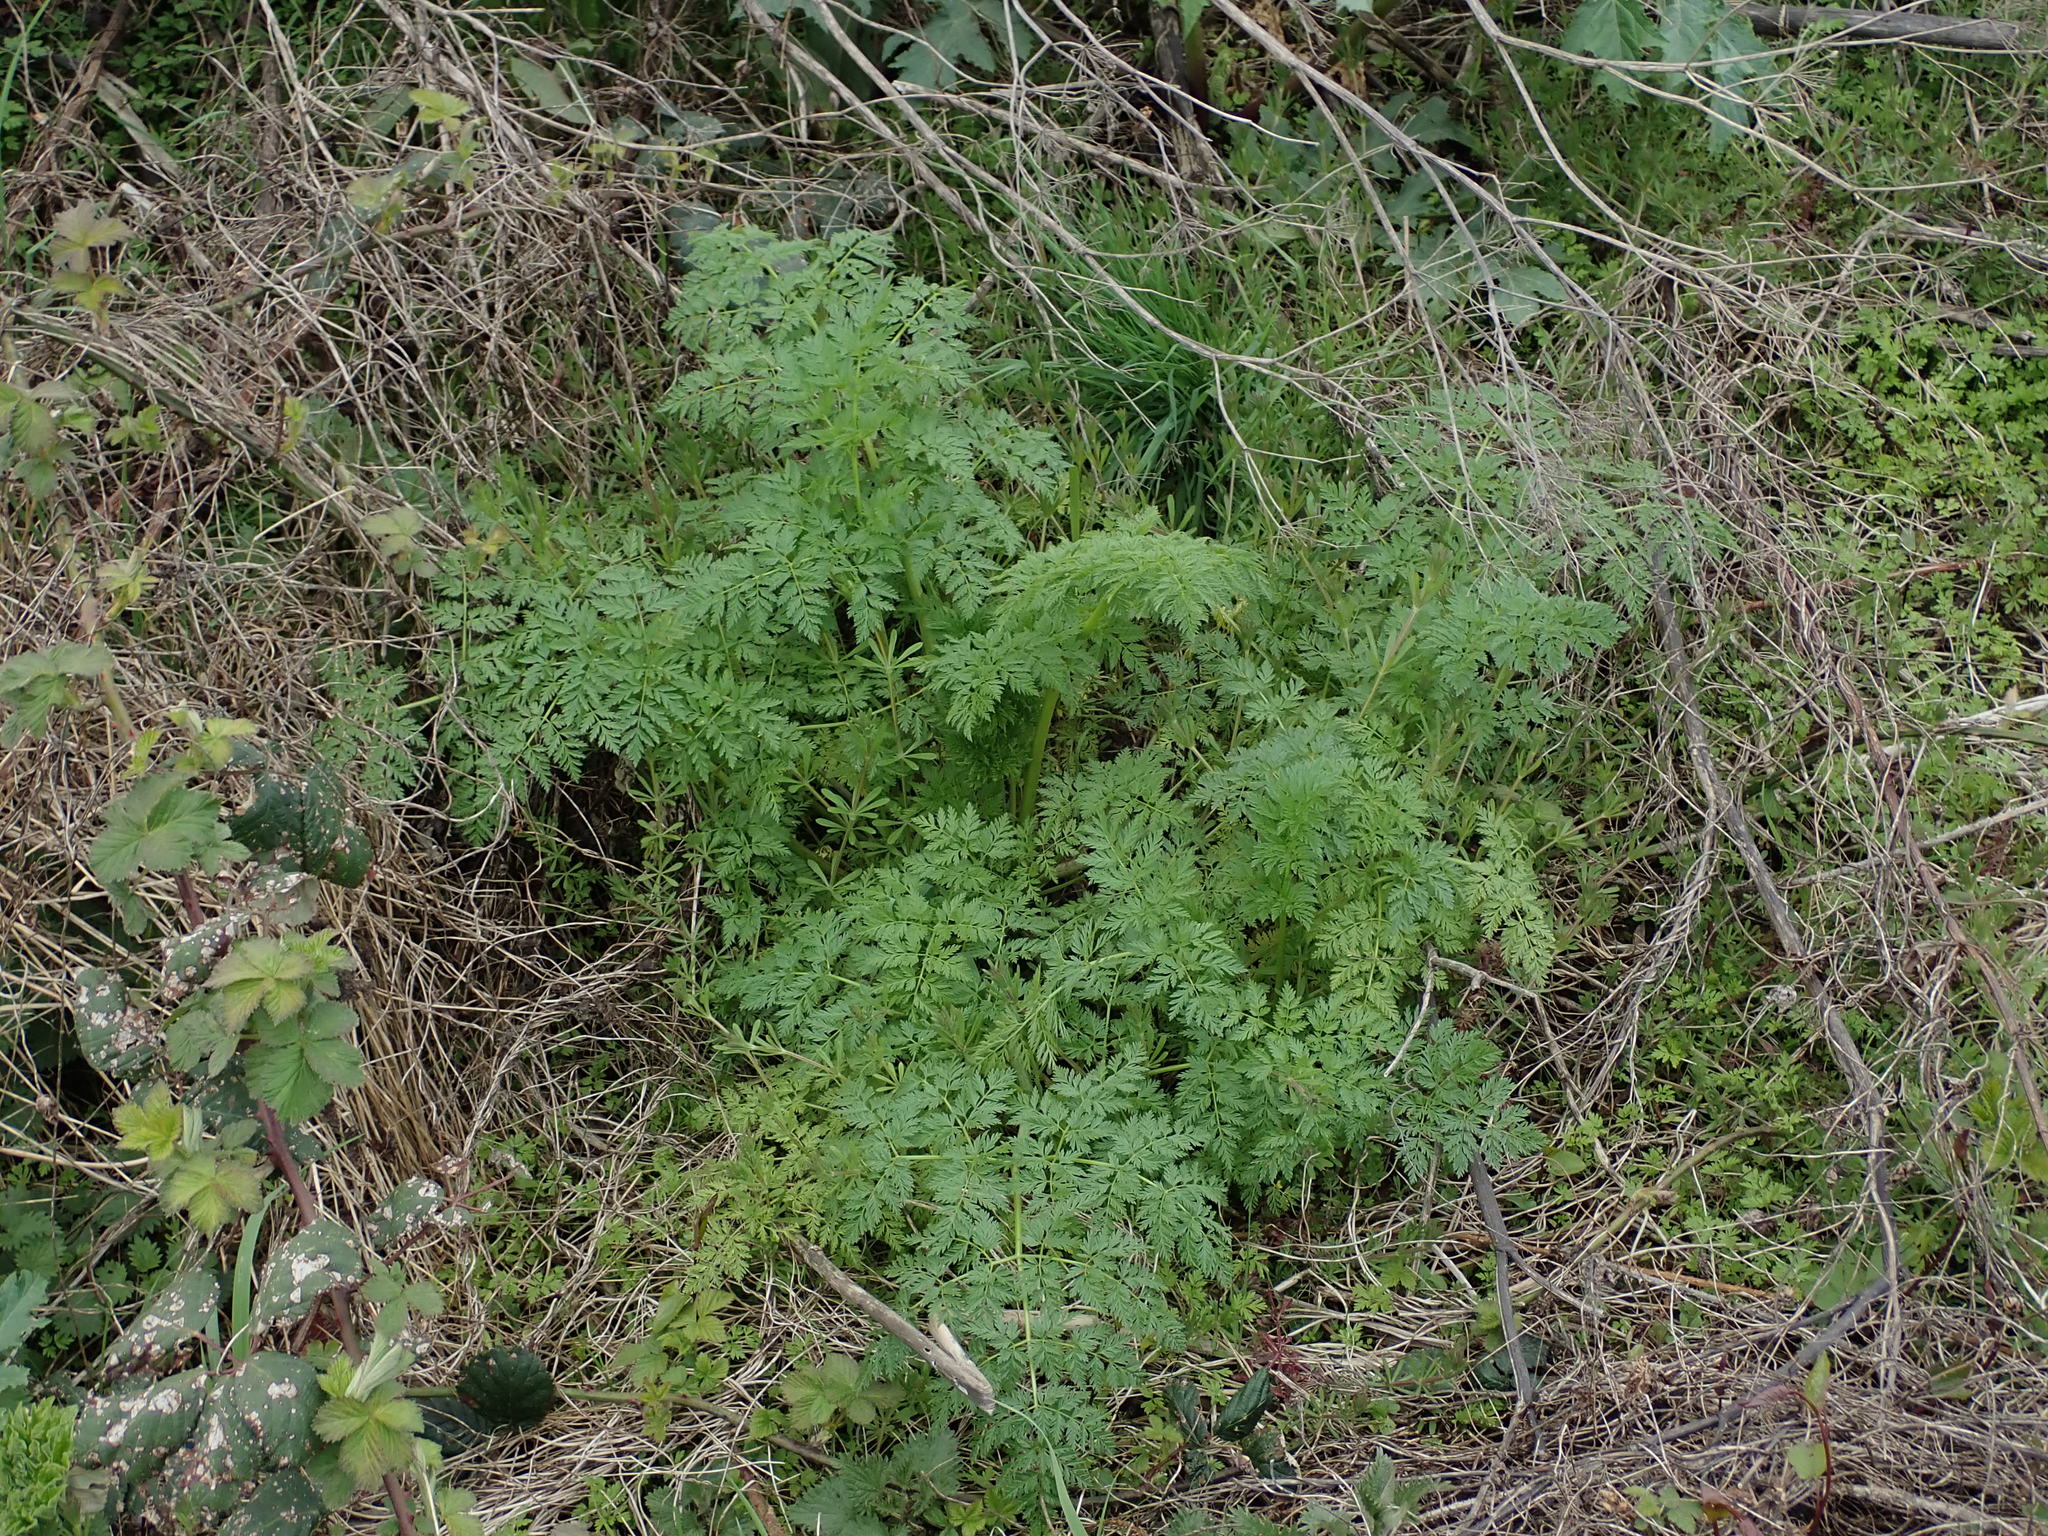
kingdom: Plantae
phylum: Tracheophyta
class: Magnoliopsida
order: Apiales
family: Apiaceae
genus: Conium
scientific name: Conium maculatum
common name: Hemlock
